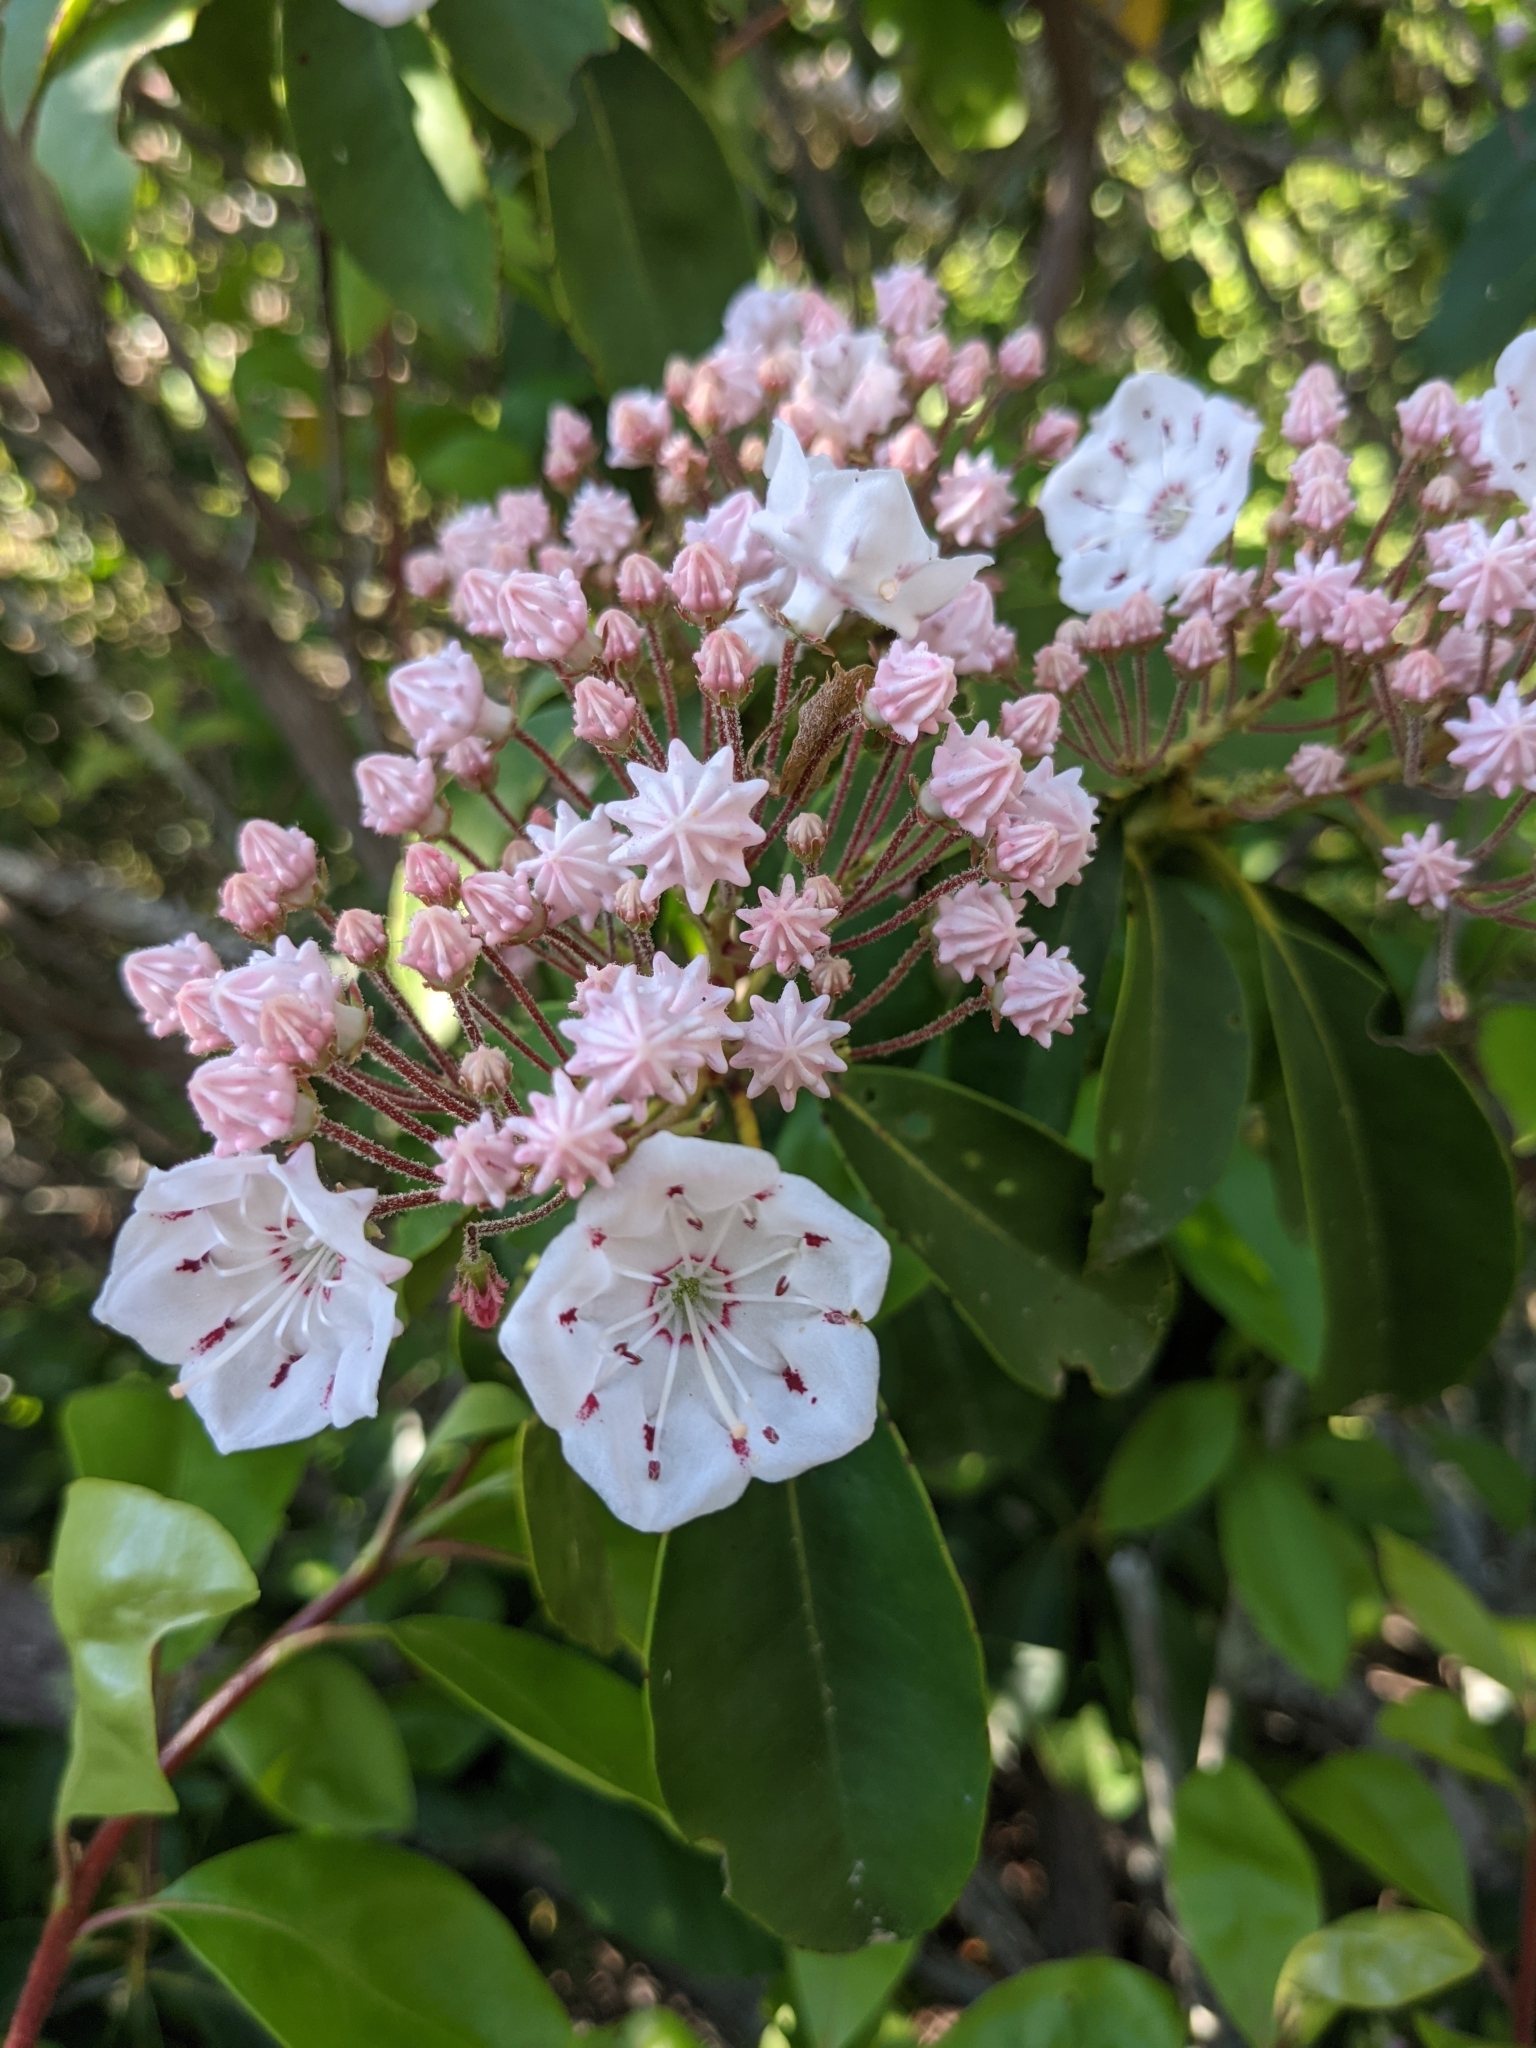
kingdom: Plantae
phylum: Tracheophyta
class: Magnoliopsida
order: Ericales
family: Ericaceae
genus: Kalmia
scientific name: Kalmia latifolia
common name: Mountain-laurel
